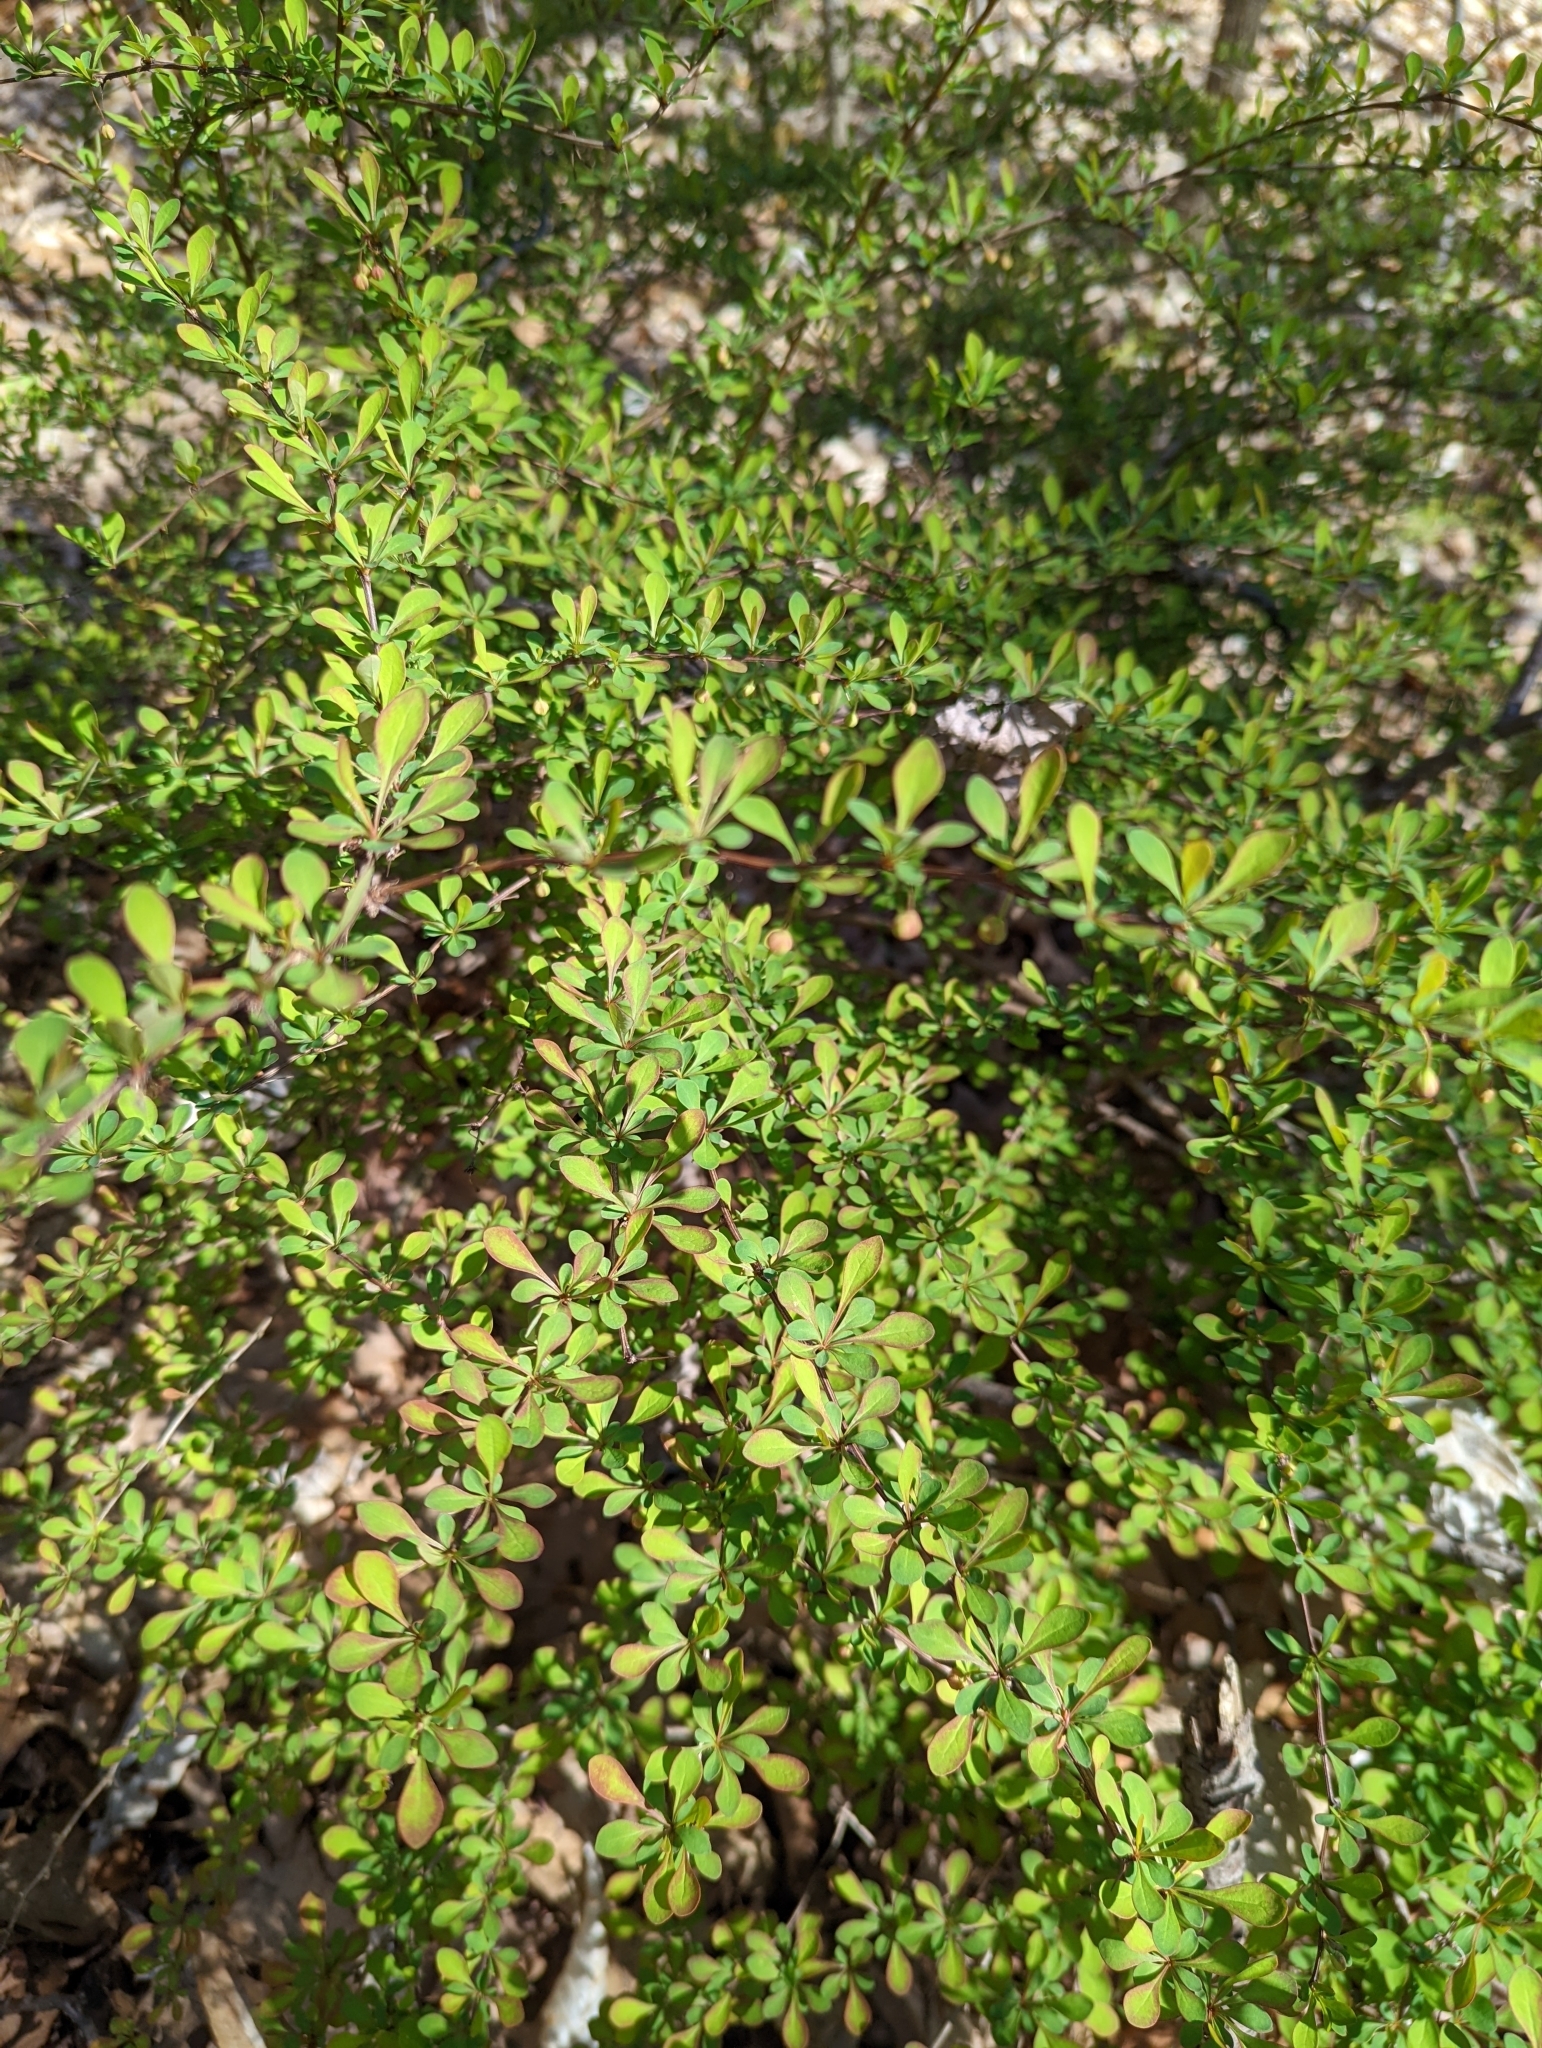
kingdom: Plantae
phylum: Tracheophyta
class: Magnoliopsida
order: Ranunculales
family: Berberidaceae
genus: Berberis
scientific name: Berberis thunbergii
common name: Japanese barberry
